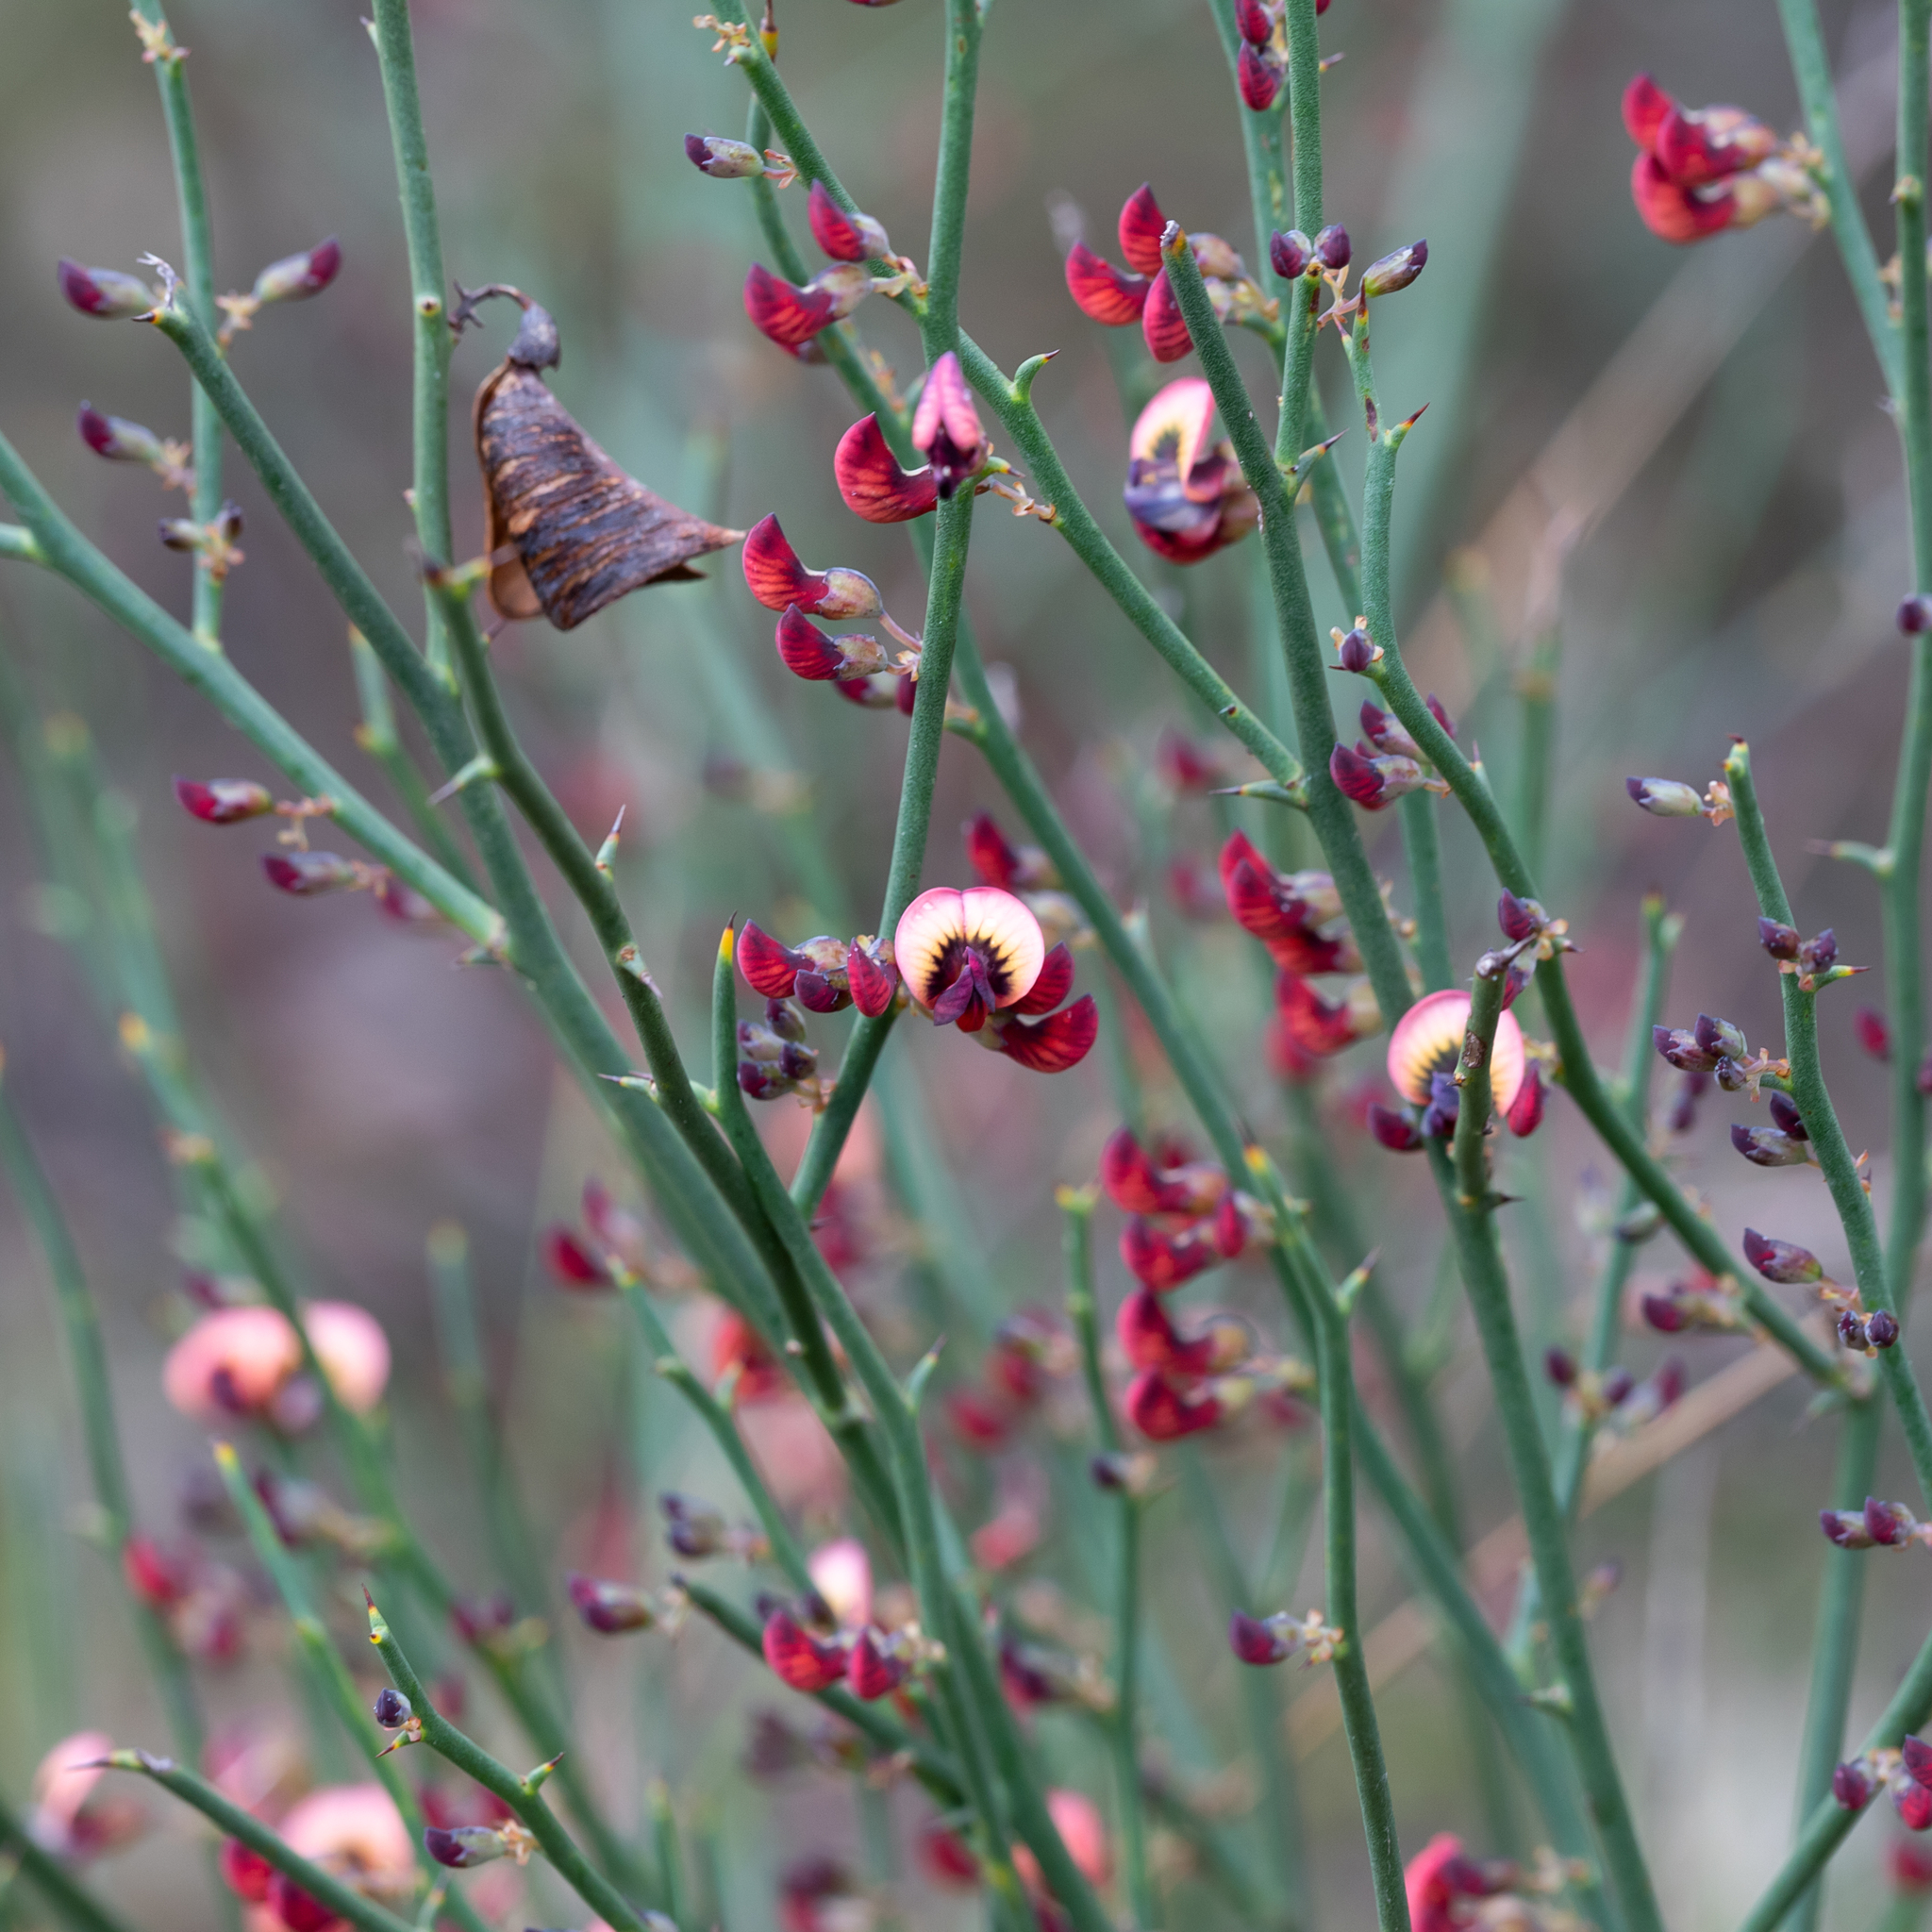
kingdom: Plantae
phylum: Tracheophyta
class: Magnoliopsida
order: Fabales
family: Fabaceae
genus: Daviesia
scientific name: Daviesia brevifolia
